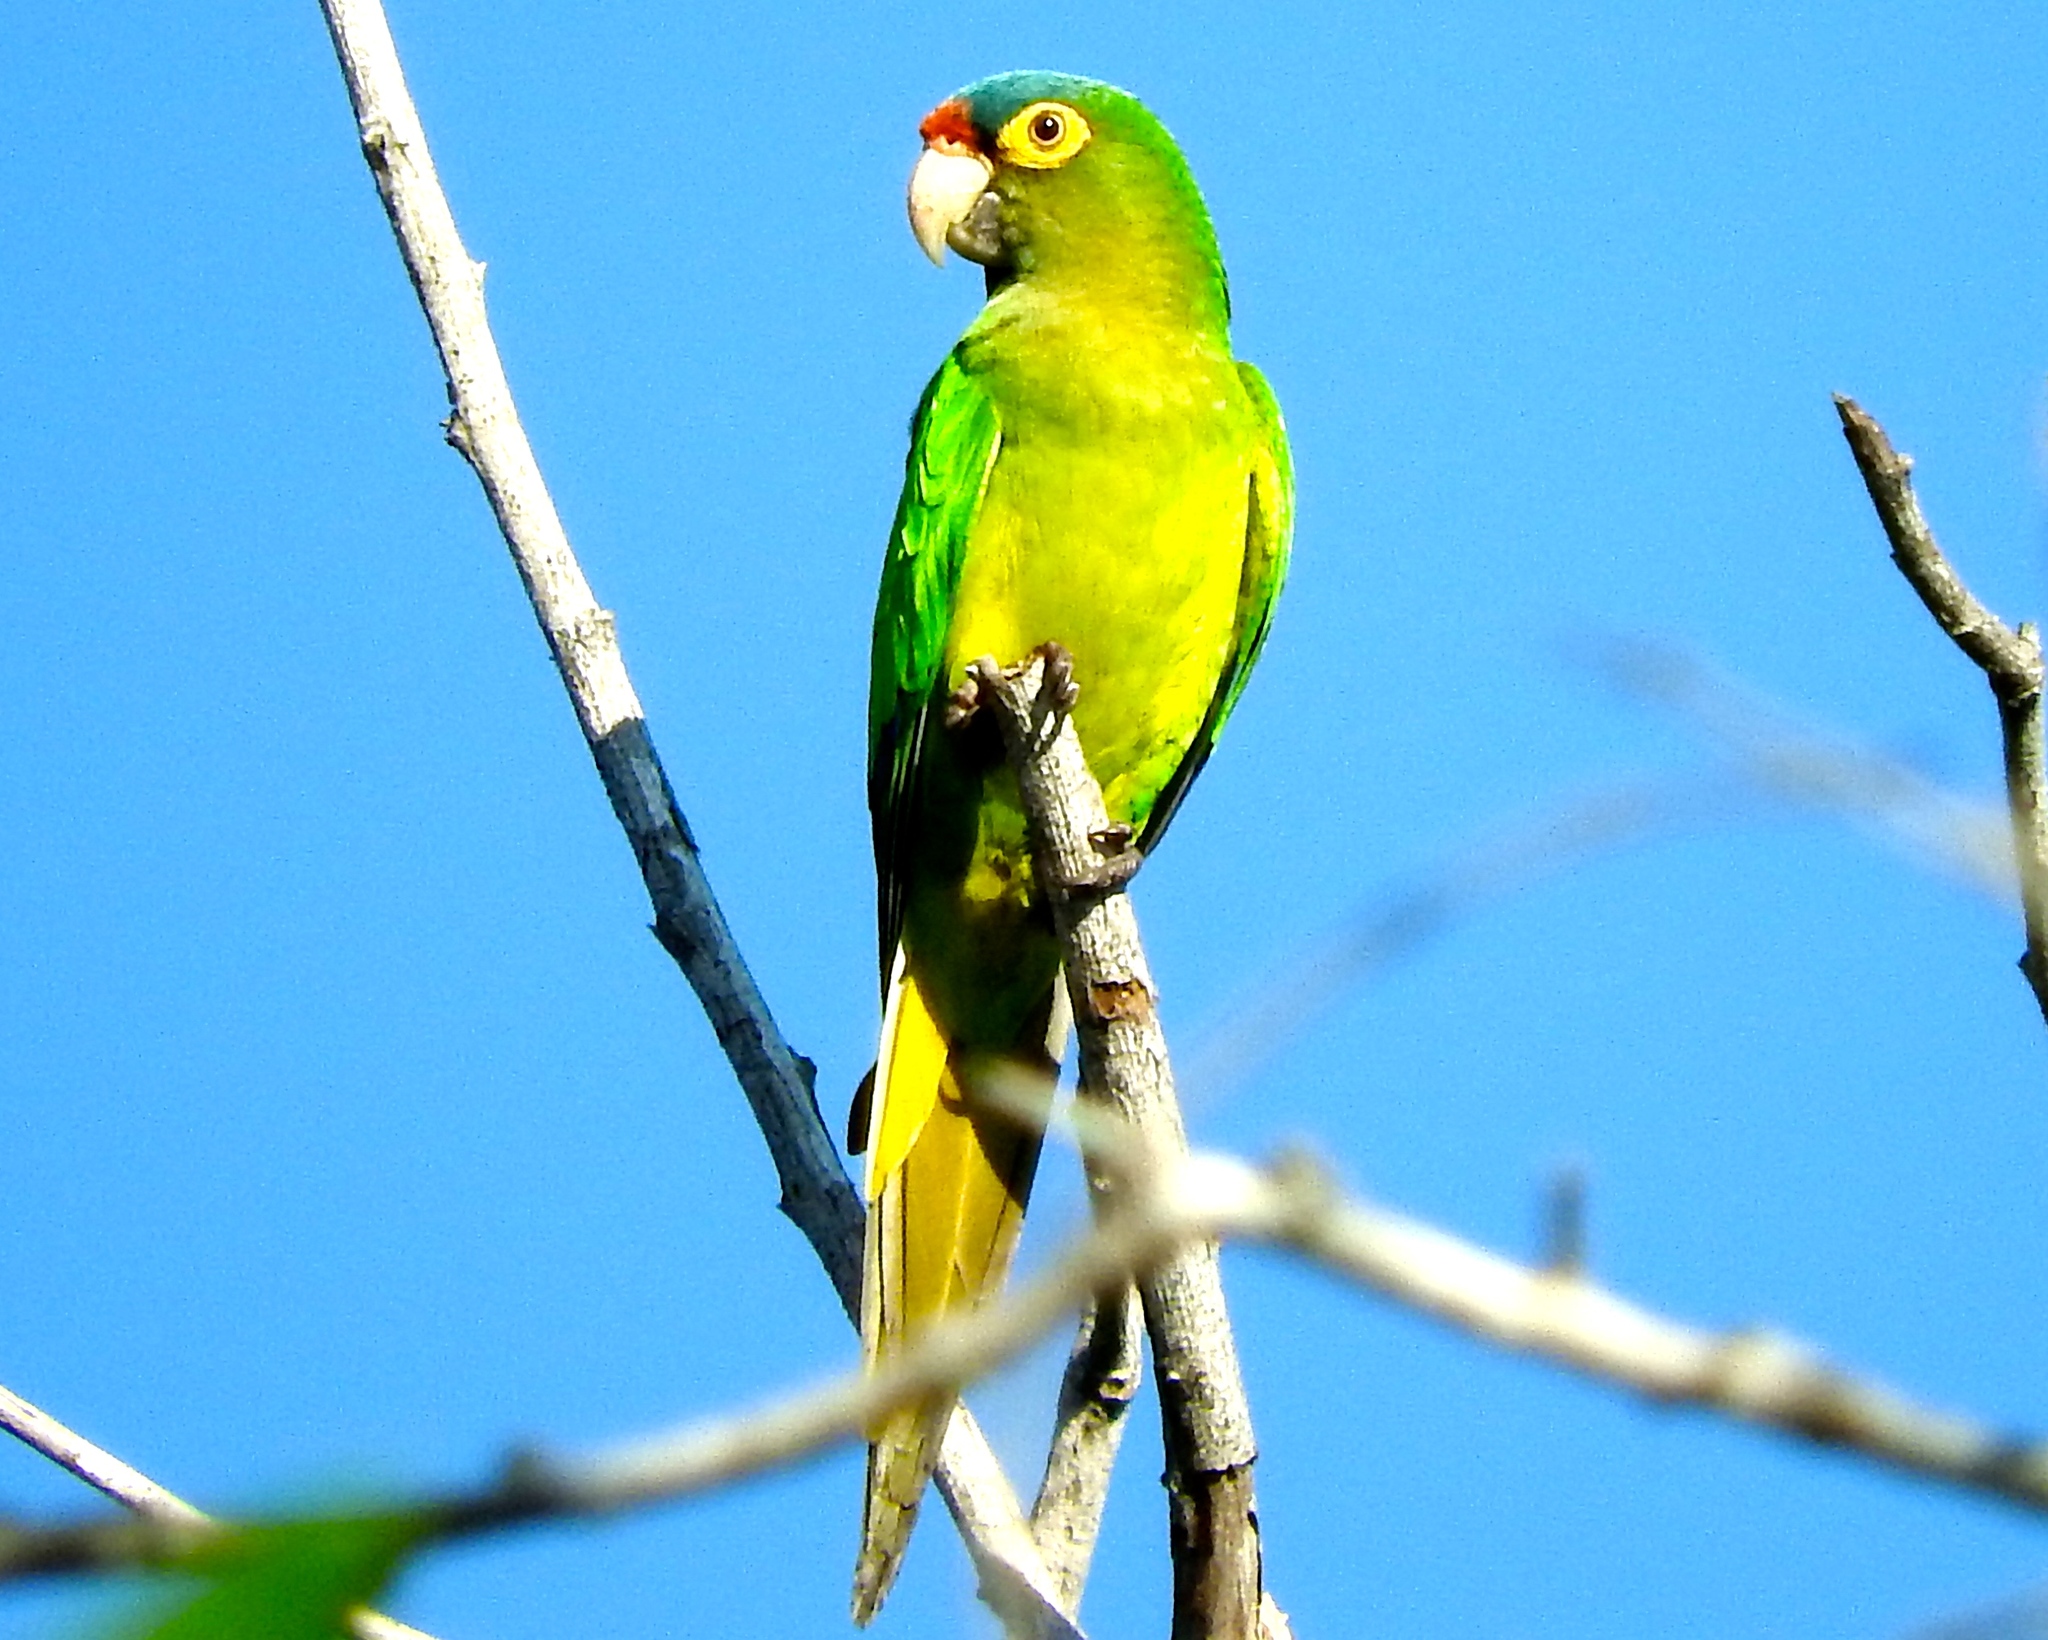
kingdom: Animalia
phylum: Chordata
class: Aves
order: Psittaciformes
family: Psittacidae
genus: Aratinga
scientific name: Aratinga canicularis
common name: Orange-fronted parakeet
